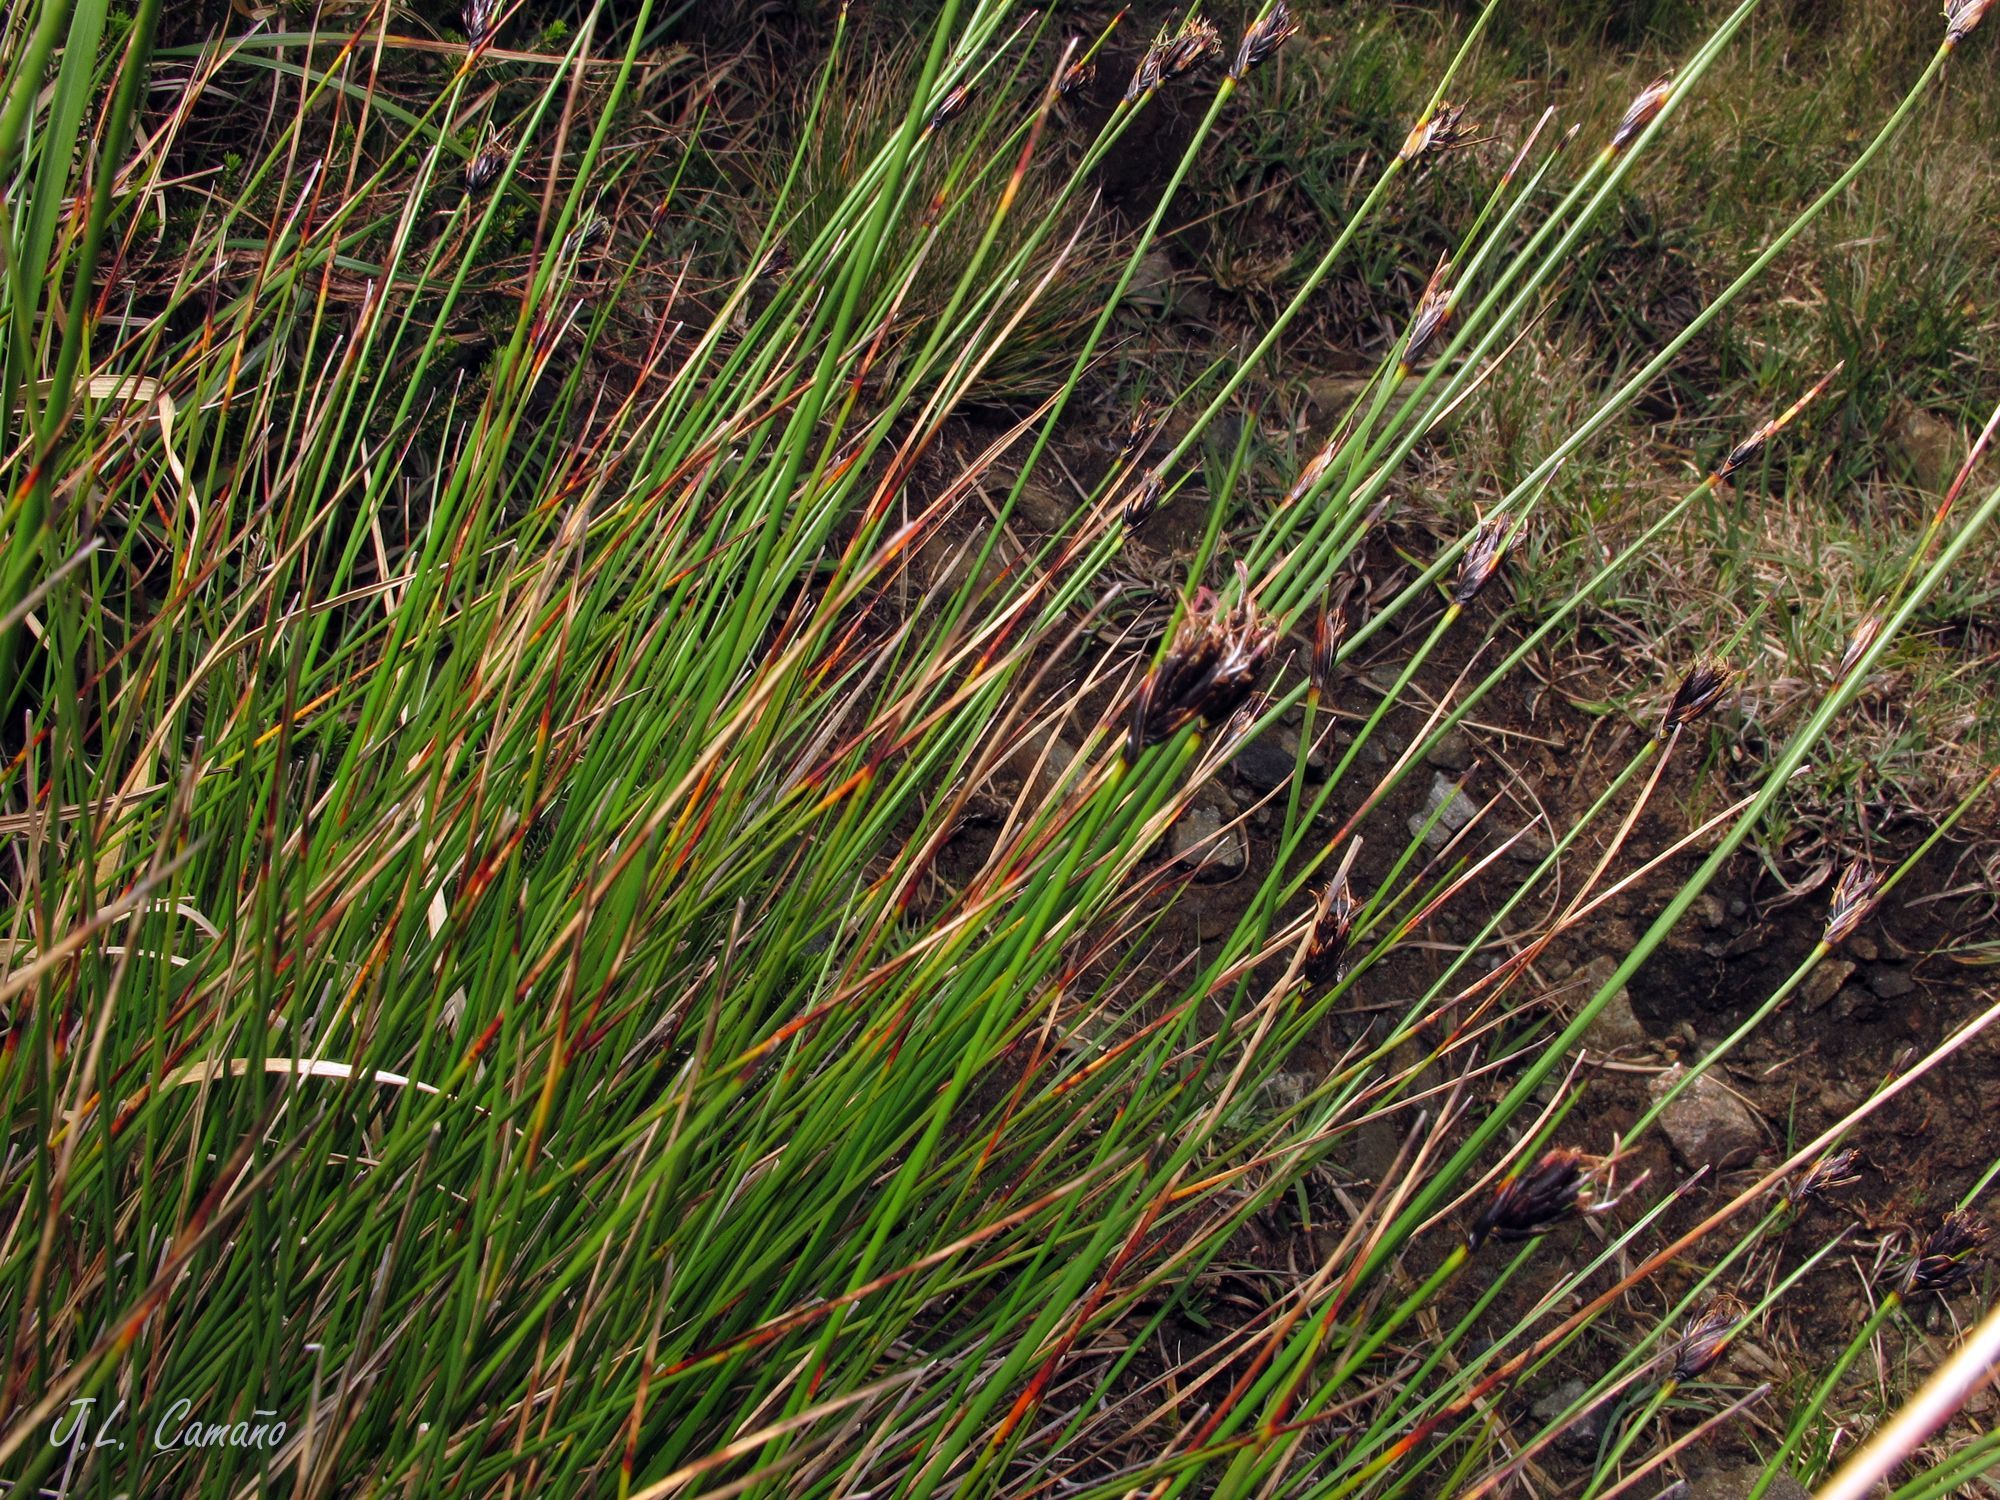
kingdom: Plantae
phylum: Tracheophyta
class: Liliopsida
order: Poales
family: Cyperaceae
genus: Schoenus
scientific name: Schoenus nigricans
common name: Black bog-rush
